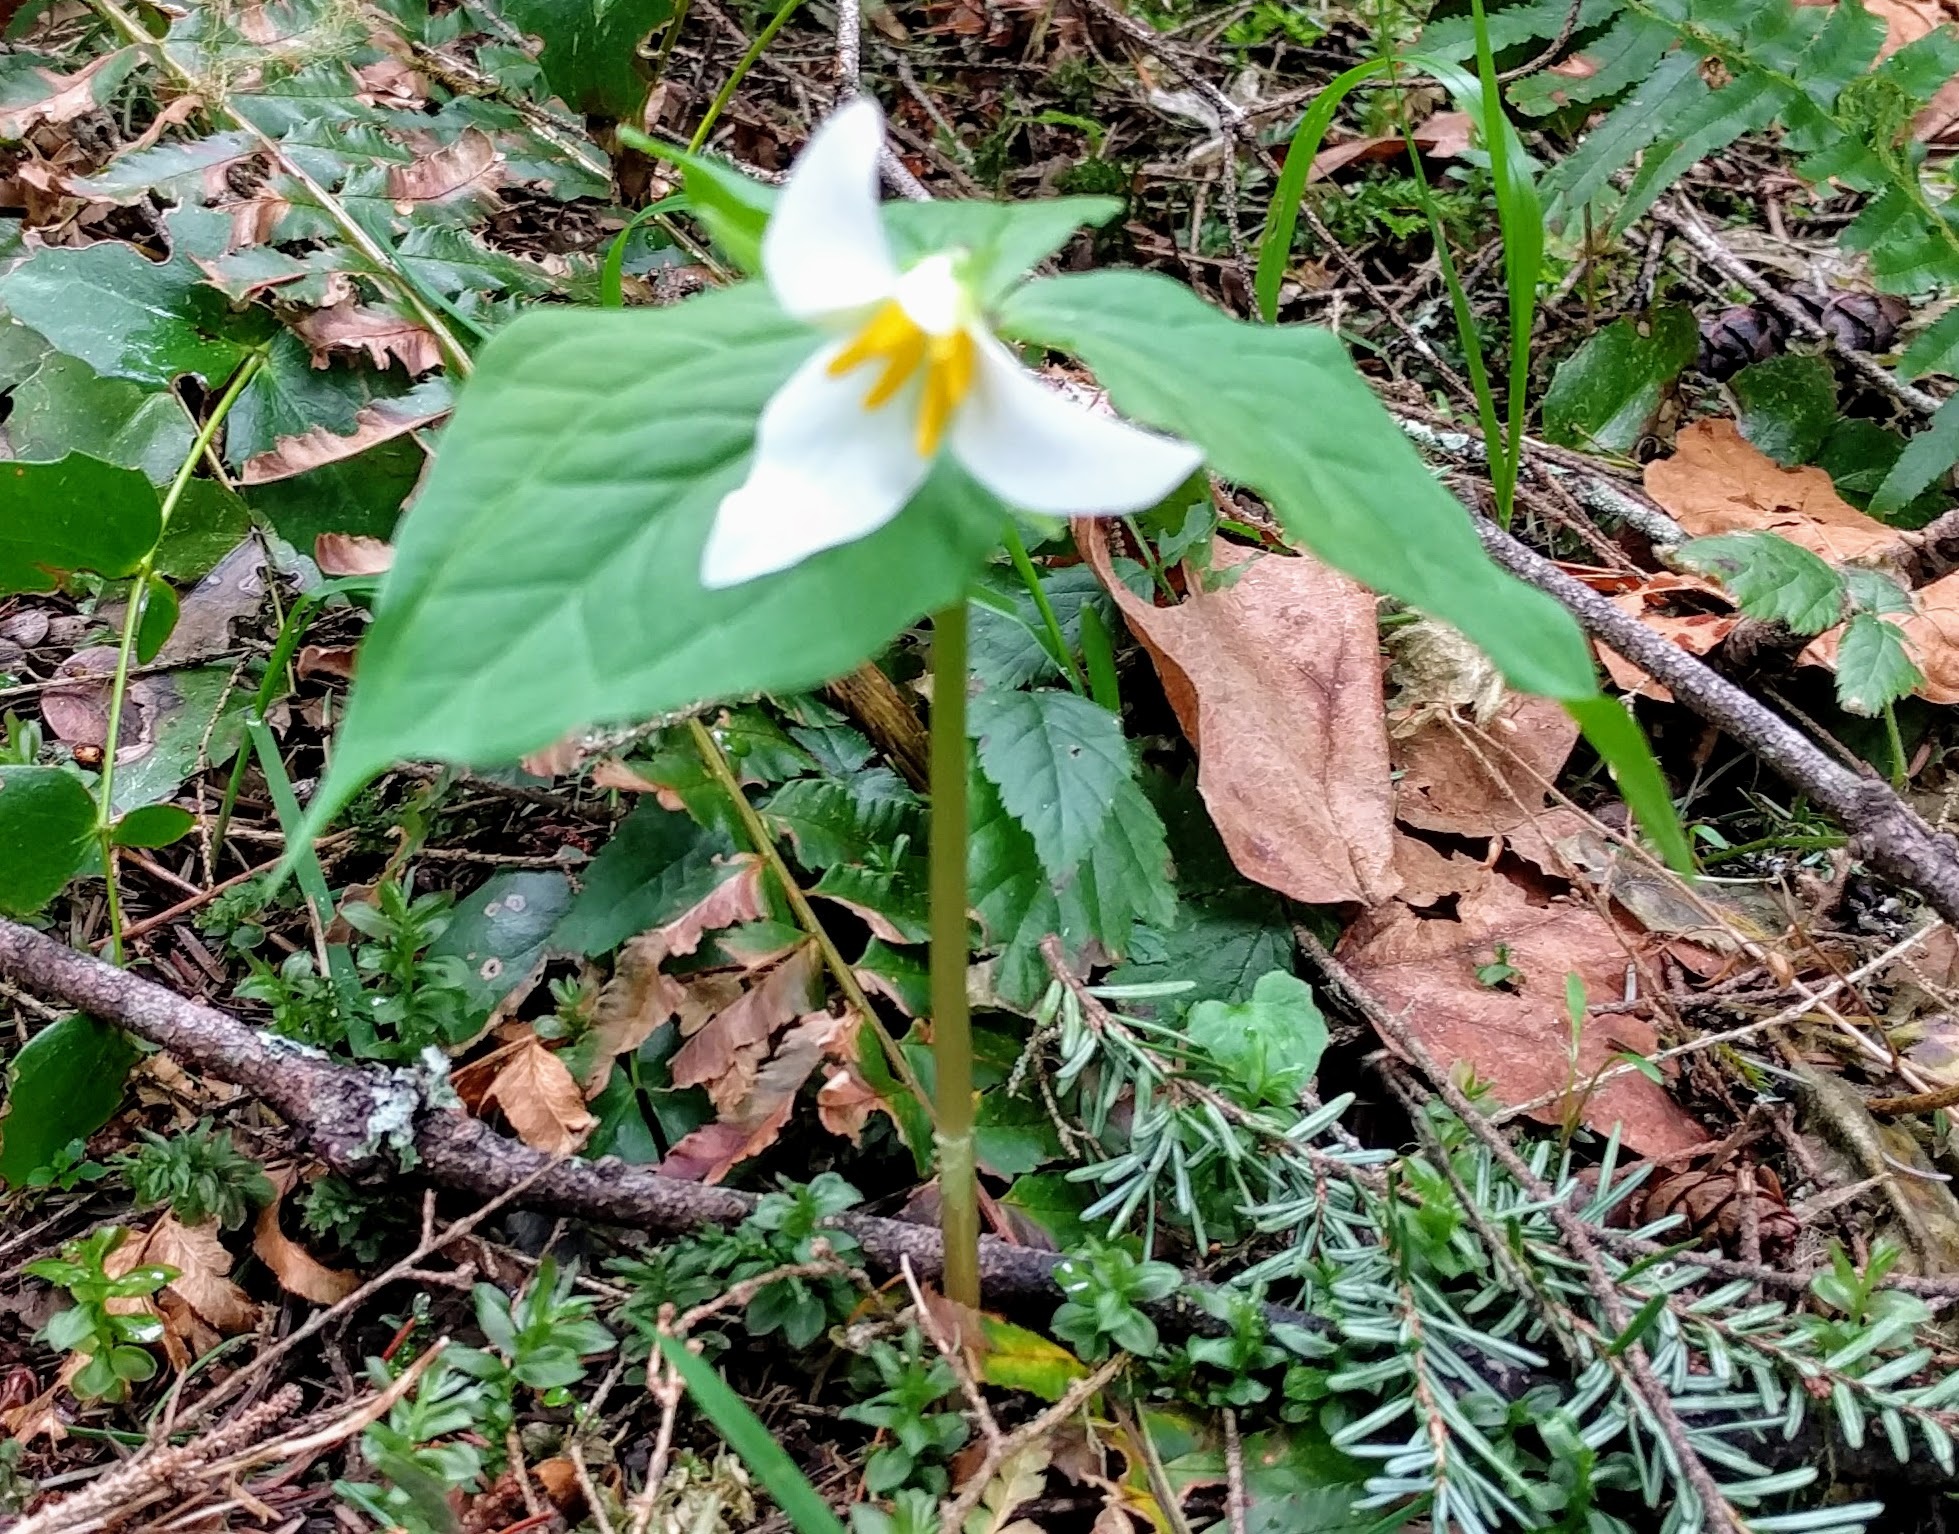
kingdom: Plantae
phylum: Tracheophyta
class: Liliopsida
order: Liliales
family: Melanthiaceae
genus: Trillium
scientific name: Trillium ovatum
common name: Pacific trillium
